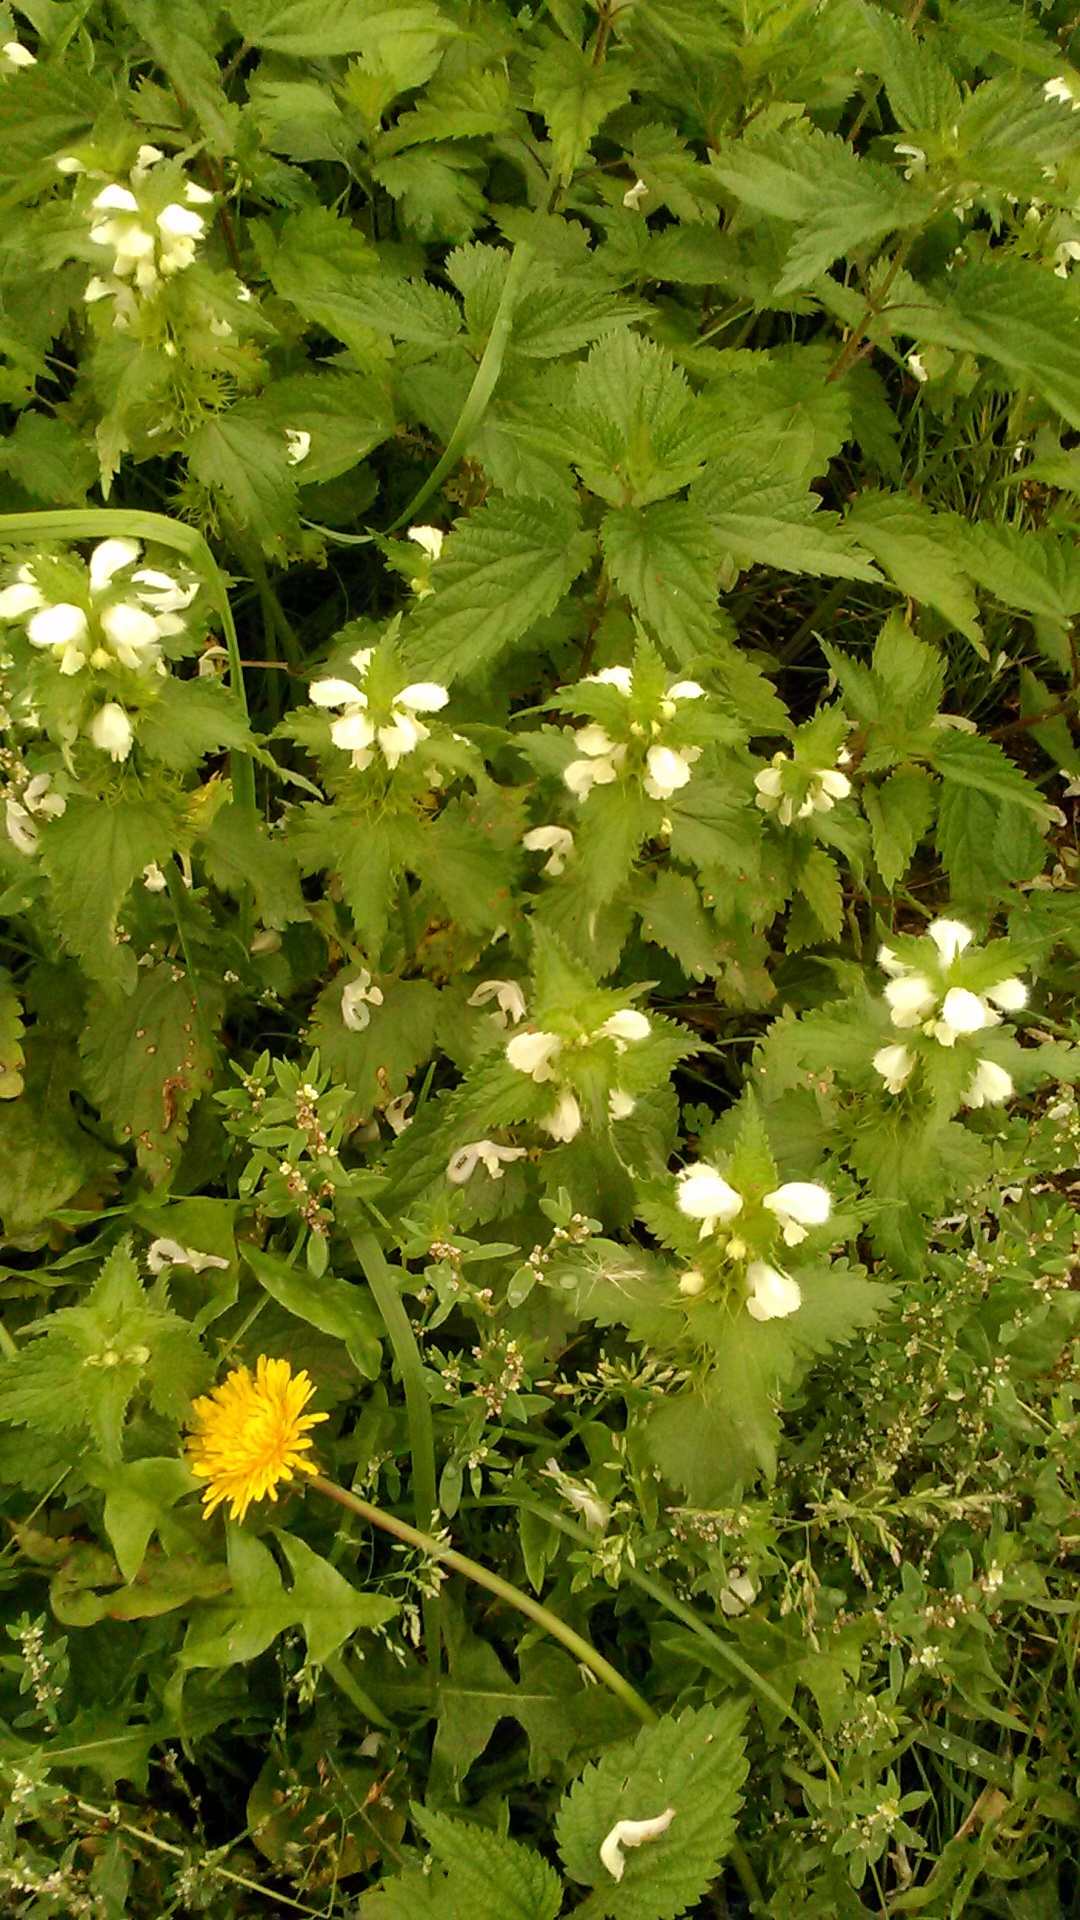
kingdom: Plantae
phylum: Tracheophyta
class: Magnoliopsida
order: Lamiales
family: Lamiaceae
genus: Lamium
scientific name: Lamium album
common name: White dead-nettle
